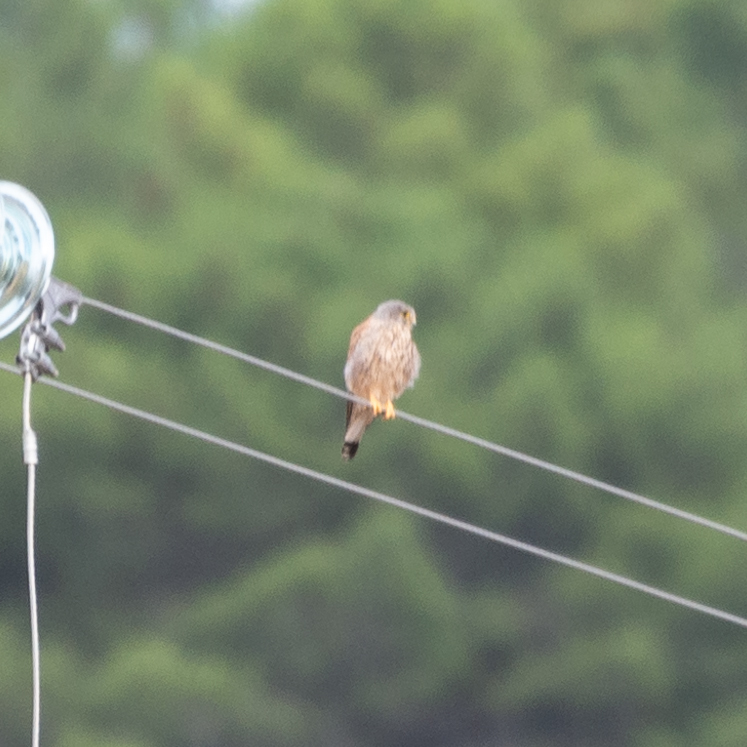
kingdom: Animalia
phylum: Chordata
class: Aves
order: Falconiformes
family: Falconidae
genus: Falco
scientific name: Falco tinnunculus
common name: Common kestrel
